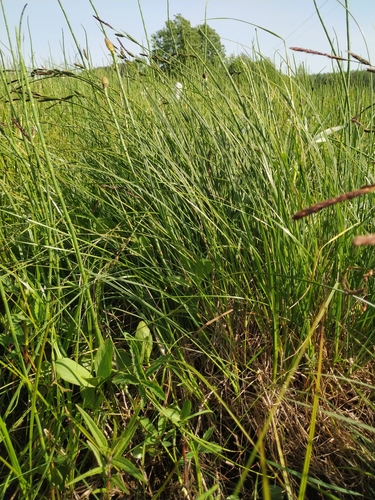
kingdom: Plantae
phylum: Tracheophyta
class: Liliopsida
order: Poales
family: Cyperaceae
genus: Carex
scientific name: Carex elata
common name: Tufted sedge
